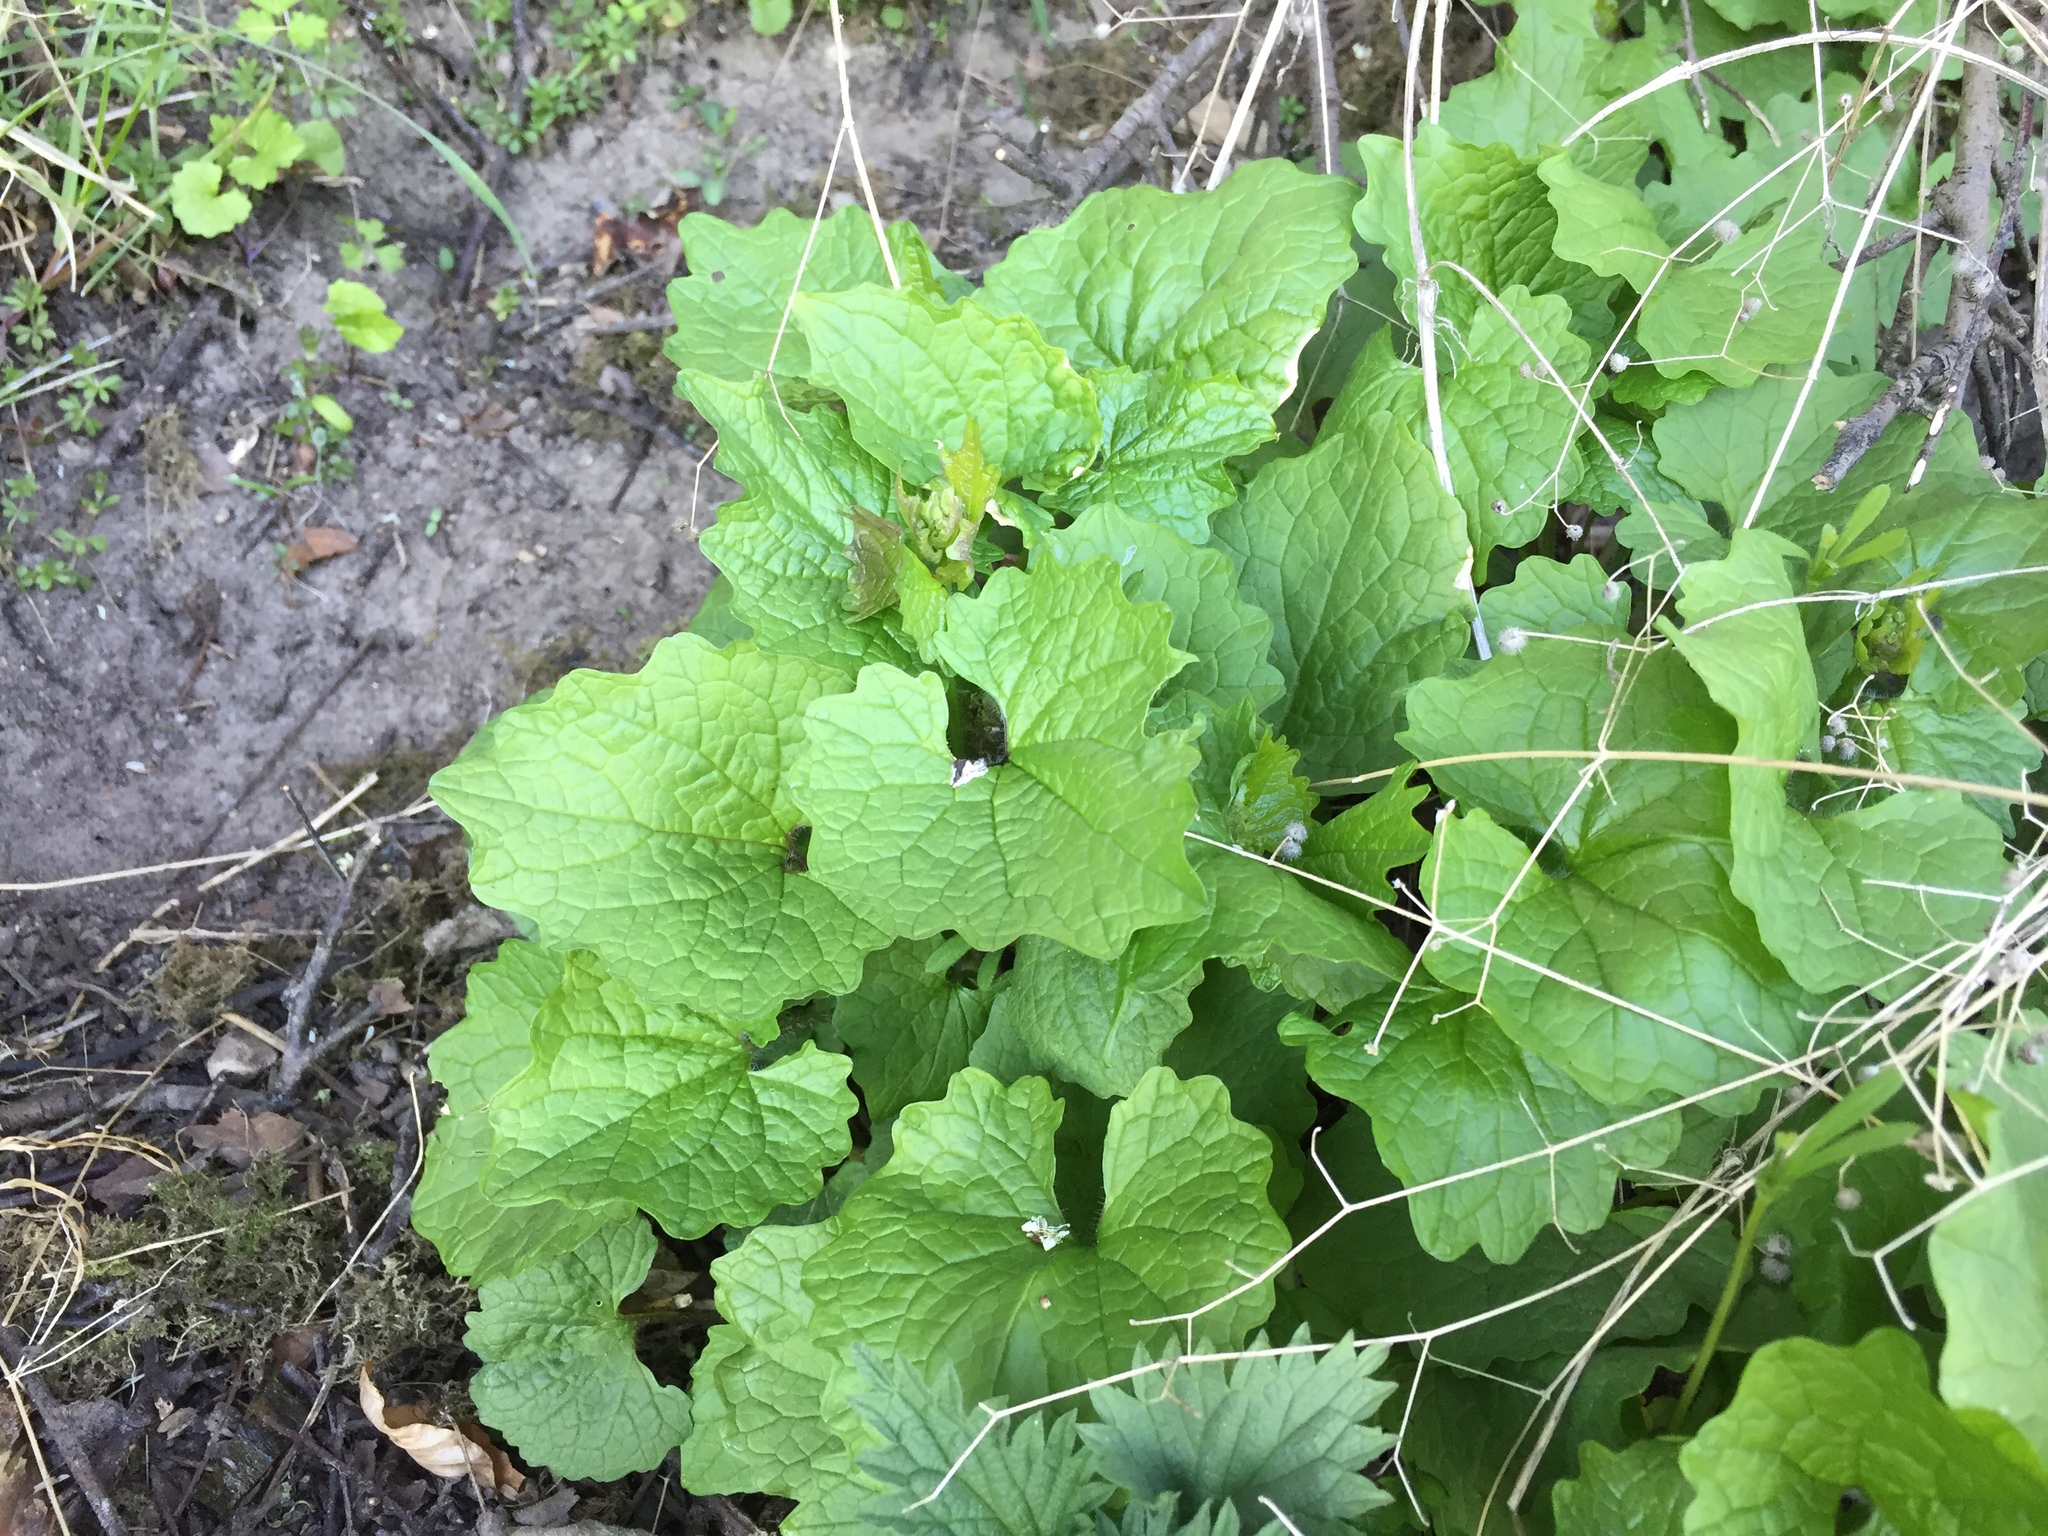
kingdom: Plantae
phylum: Tracheophyta
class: Magnoliopsida
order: Brassicales
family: Brassicaceae
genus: Alliaria
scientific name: Alliaria petiolata
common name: Garlic mustard
